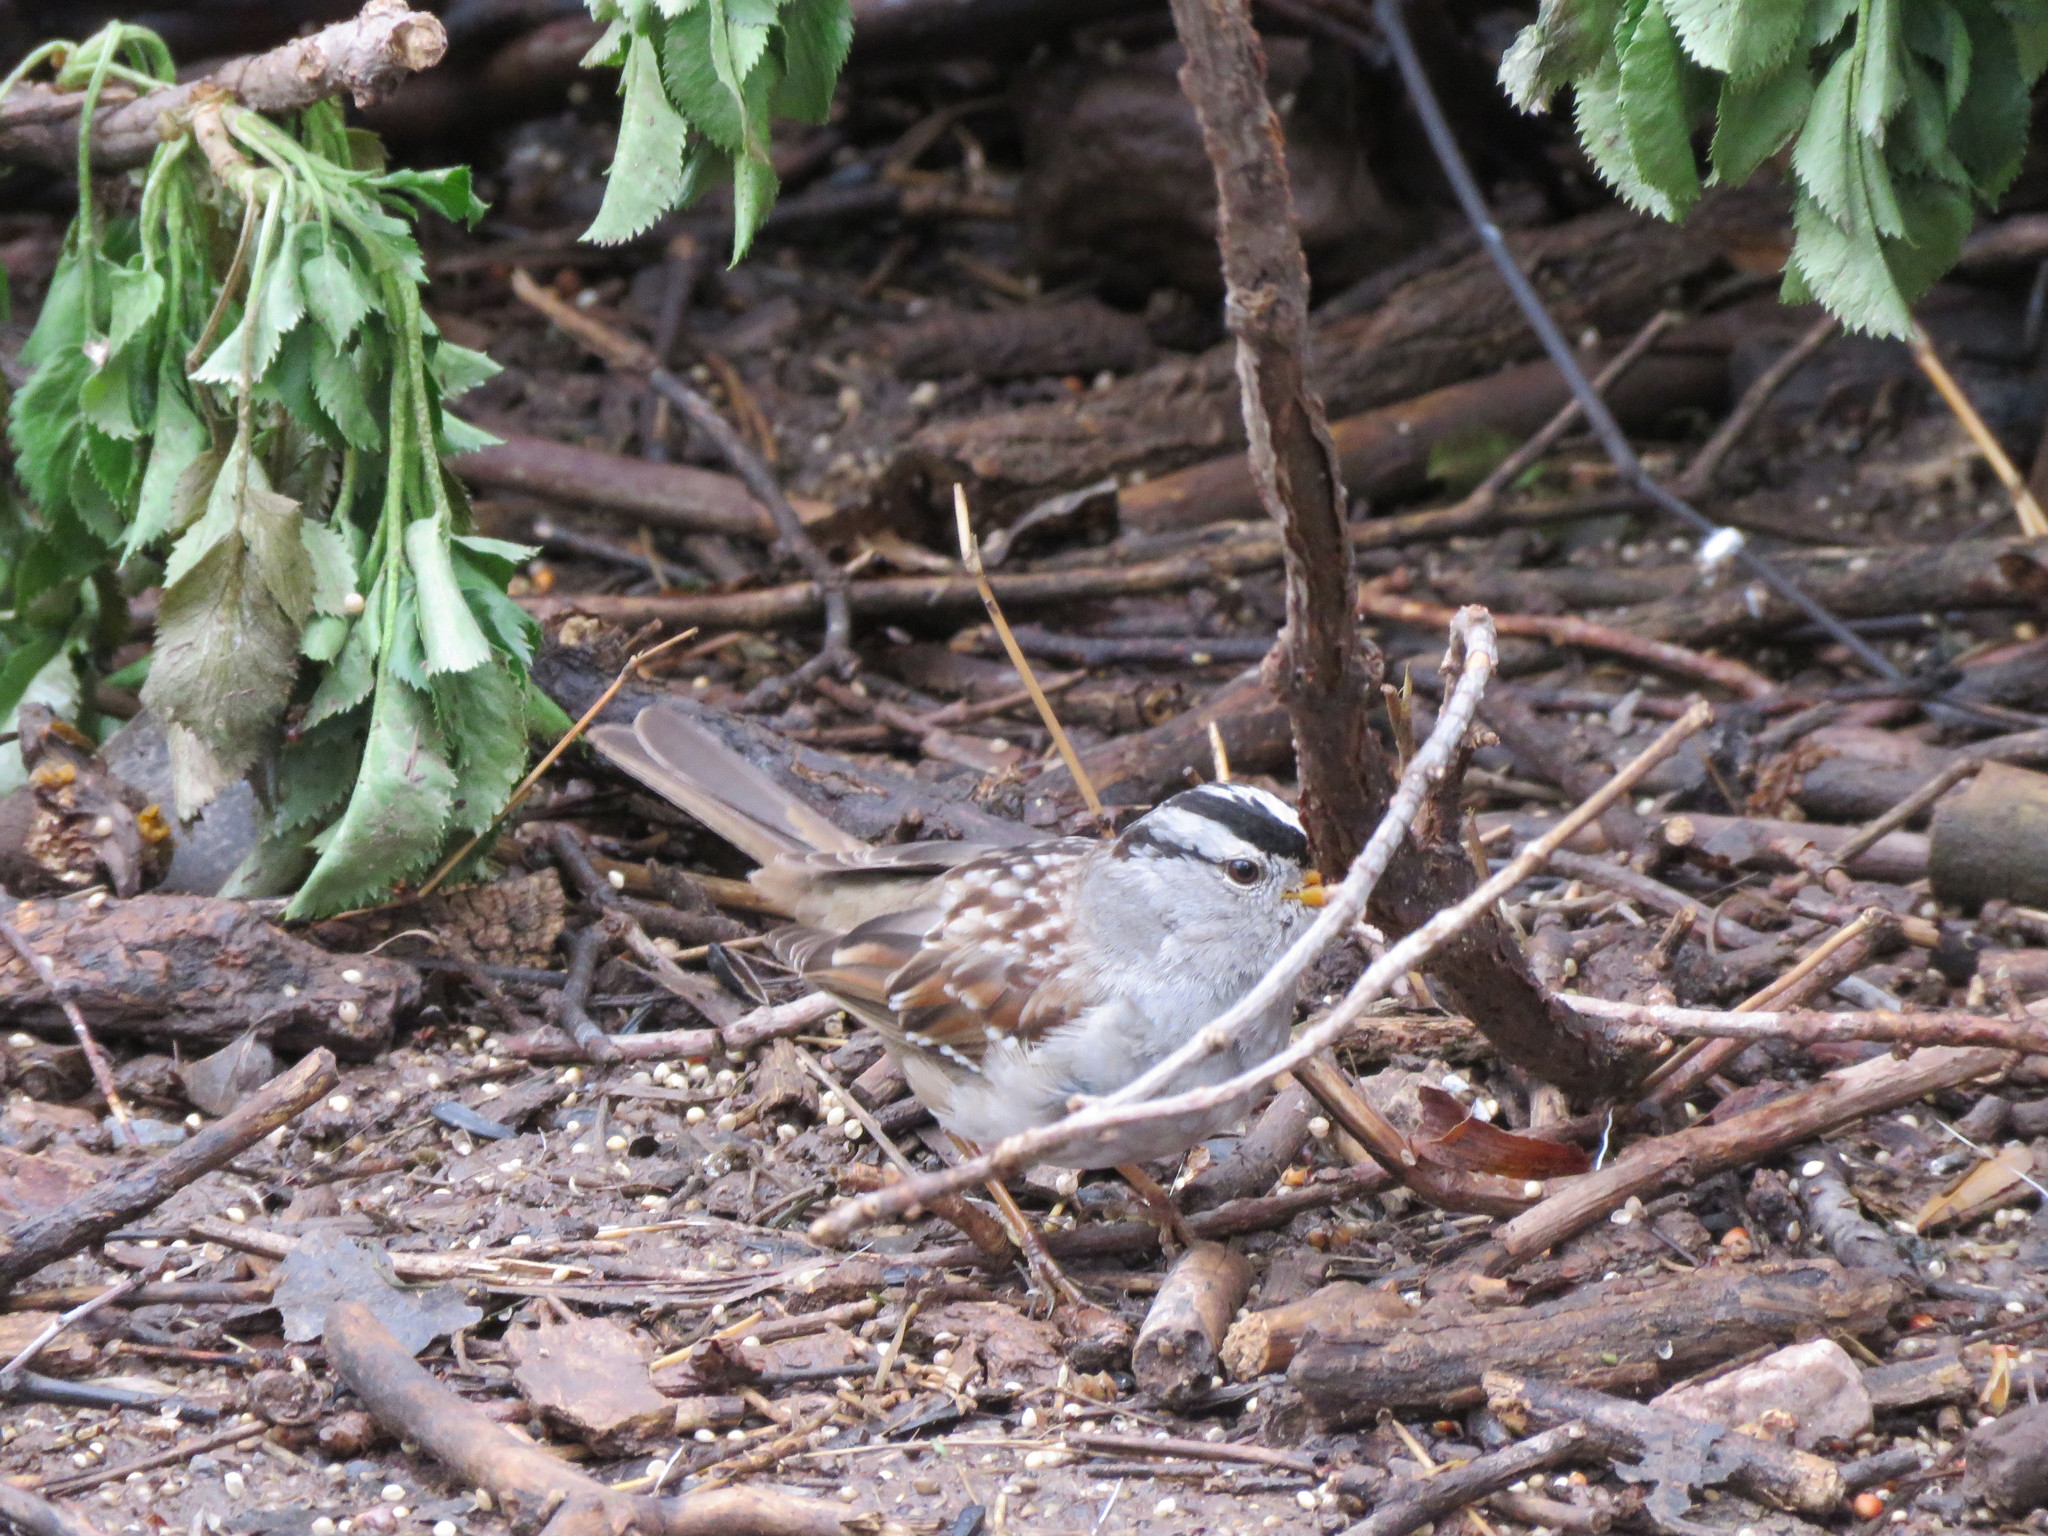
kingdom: Animalia
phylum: Chordata
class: Aves
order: Passeriformes
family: Passerellidae
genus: Zonotrichia
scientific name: Zonotrichia leucophrys
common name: White-crowned sparrow
